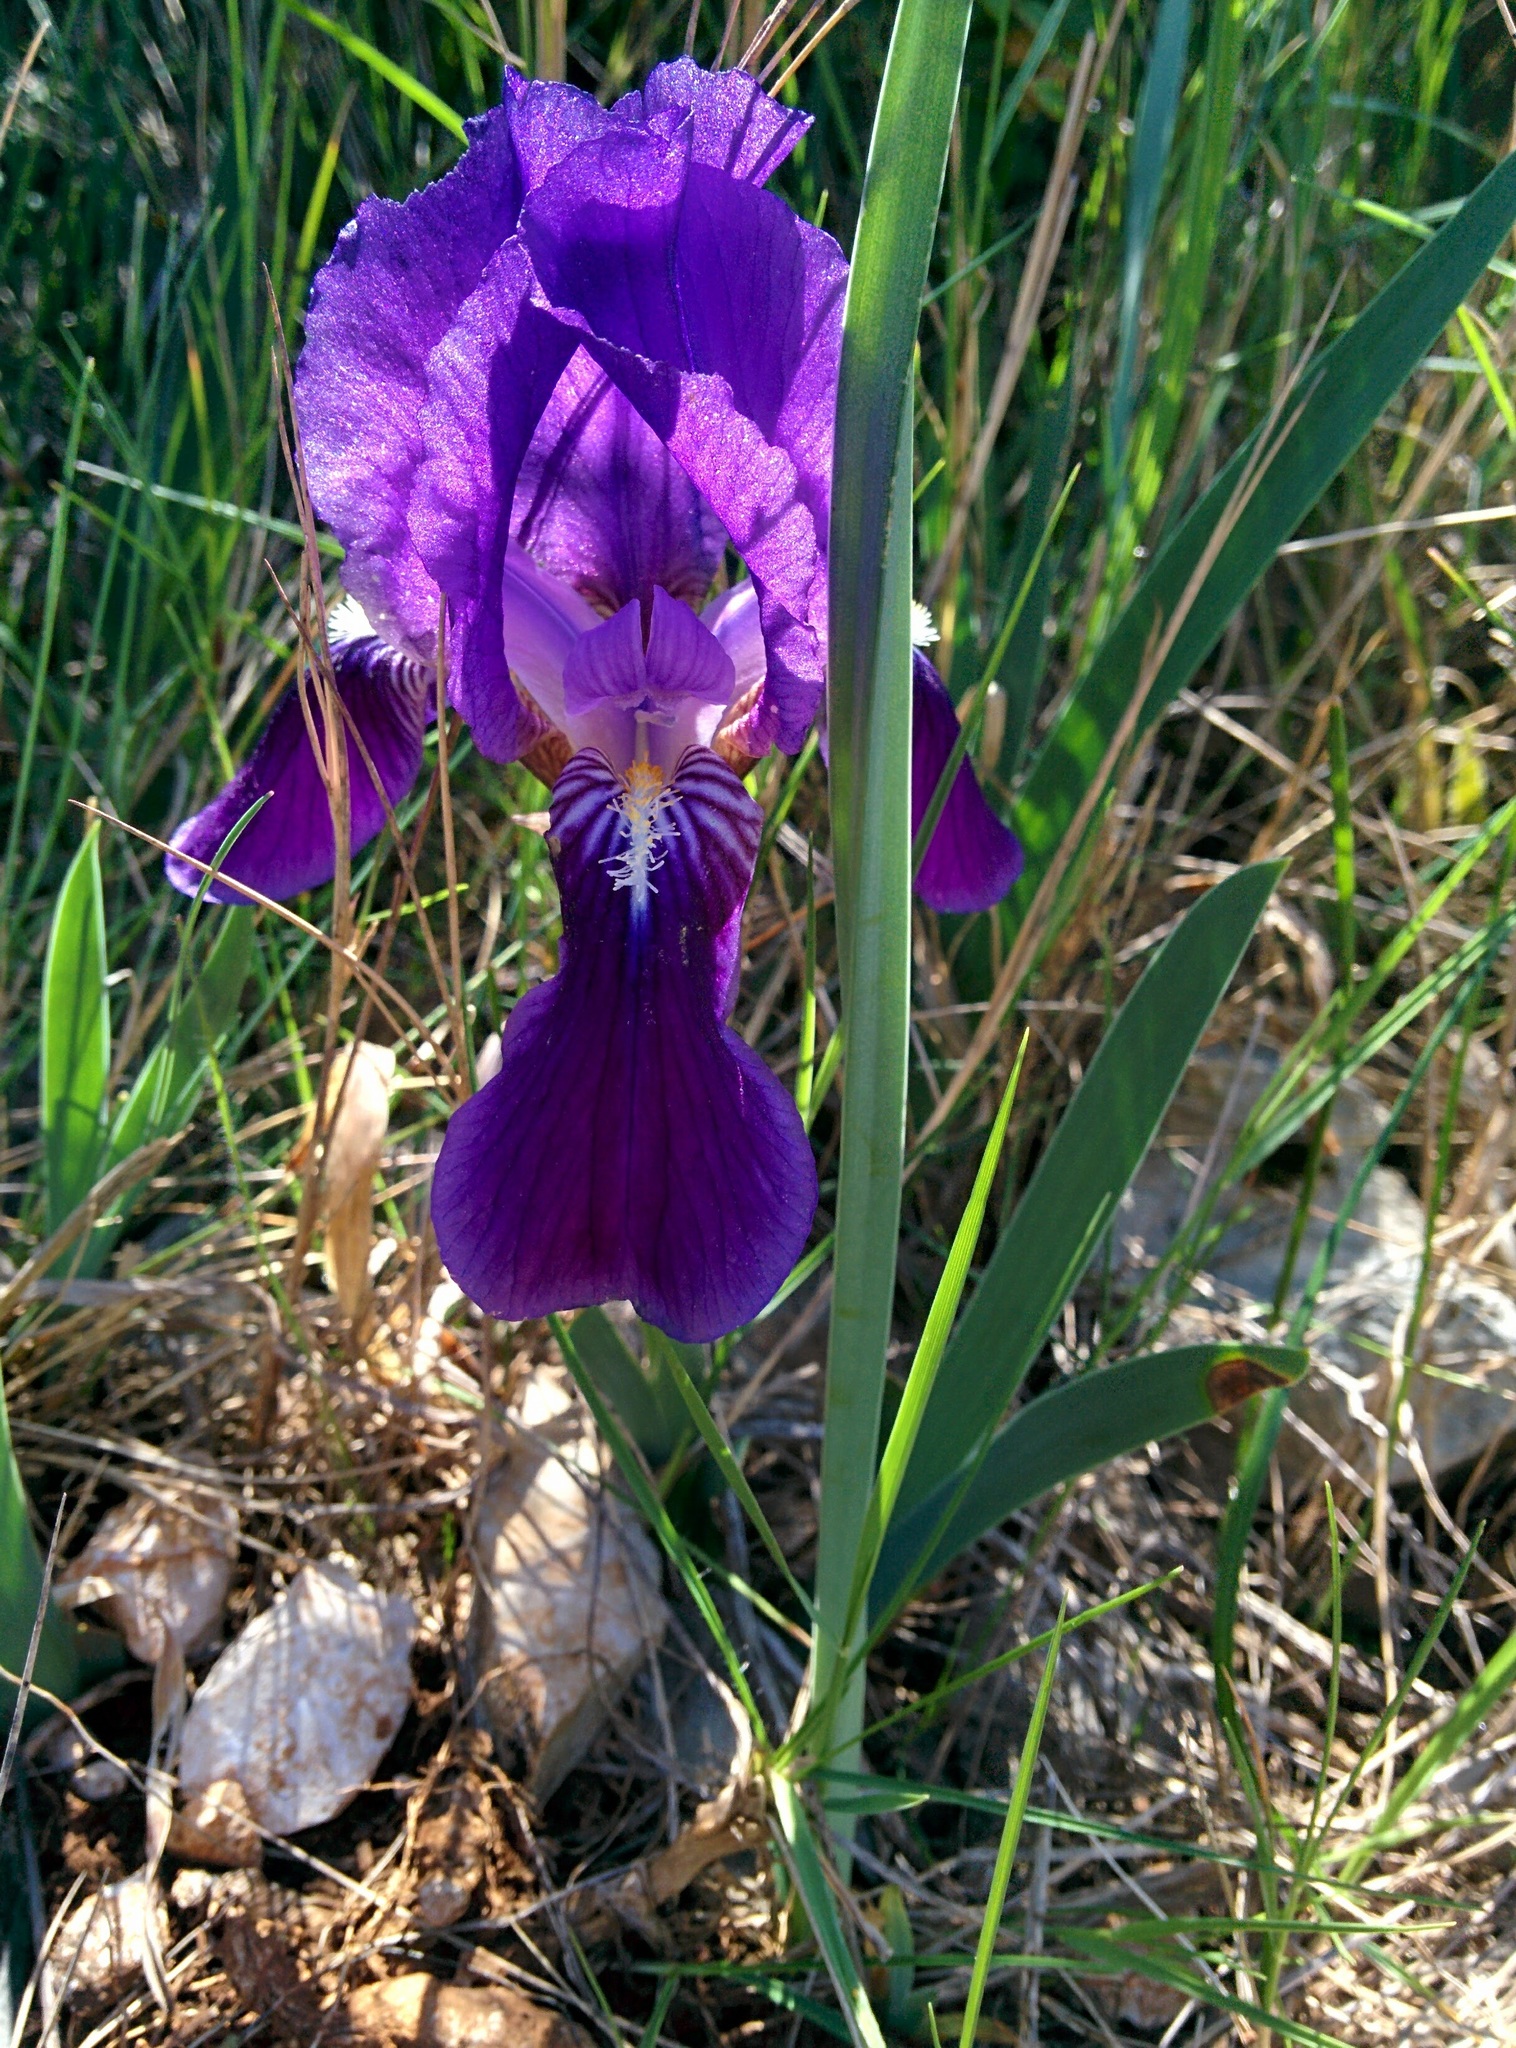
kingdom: Plantae
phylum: Tracheophyta
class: Liliopsida
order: Asparagales
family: Iridaceae
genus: Iris
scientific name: Iris lutescens
